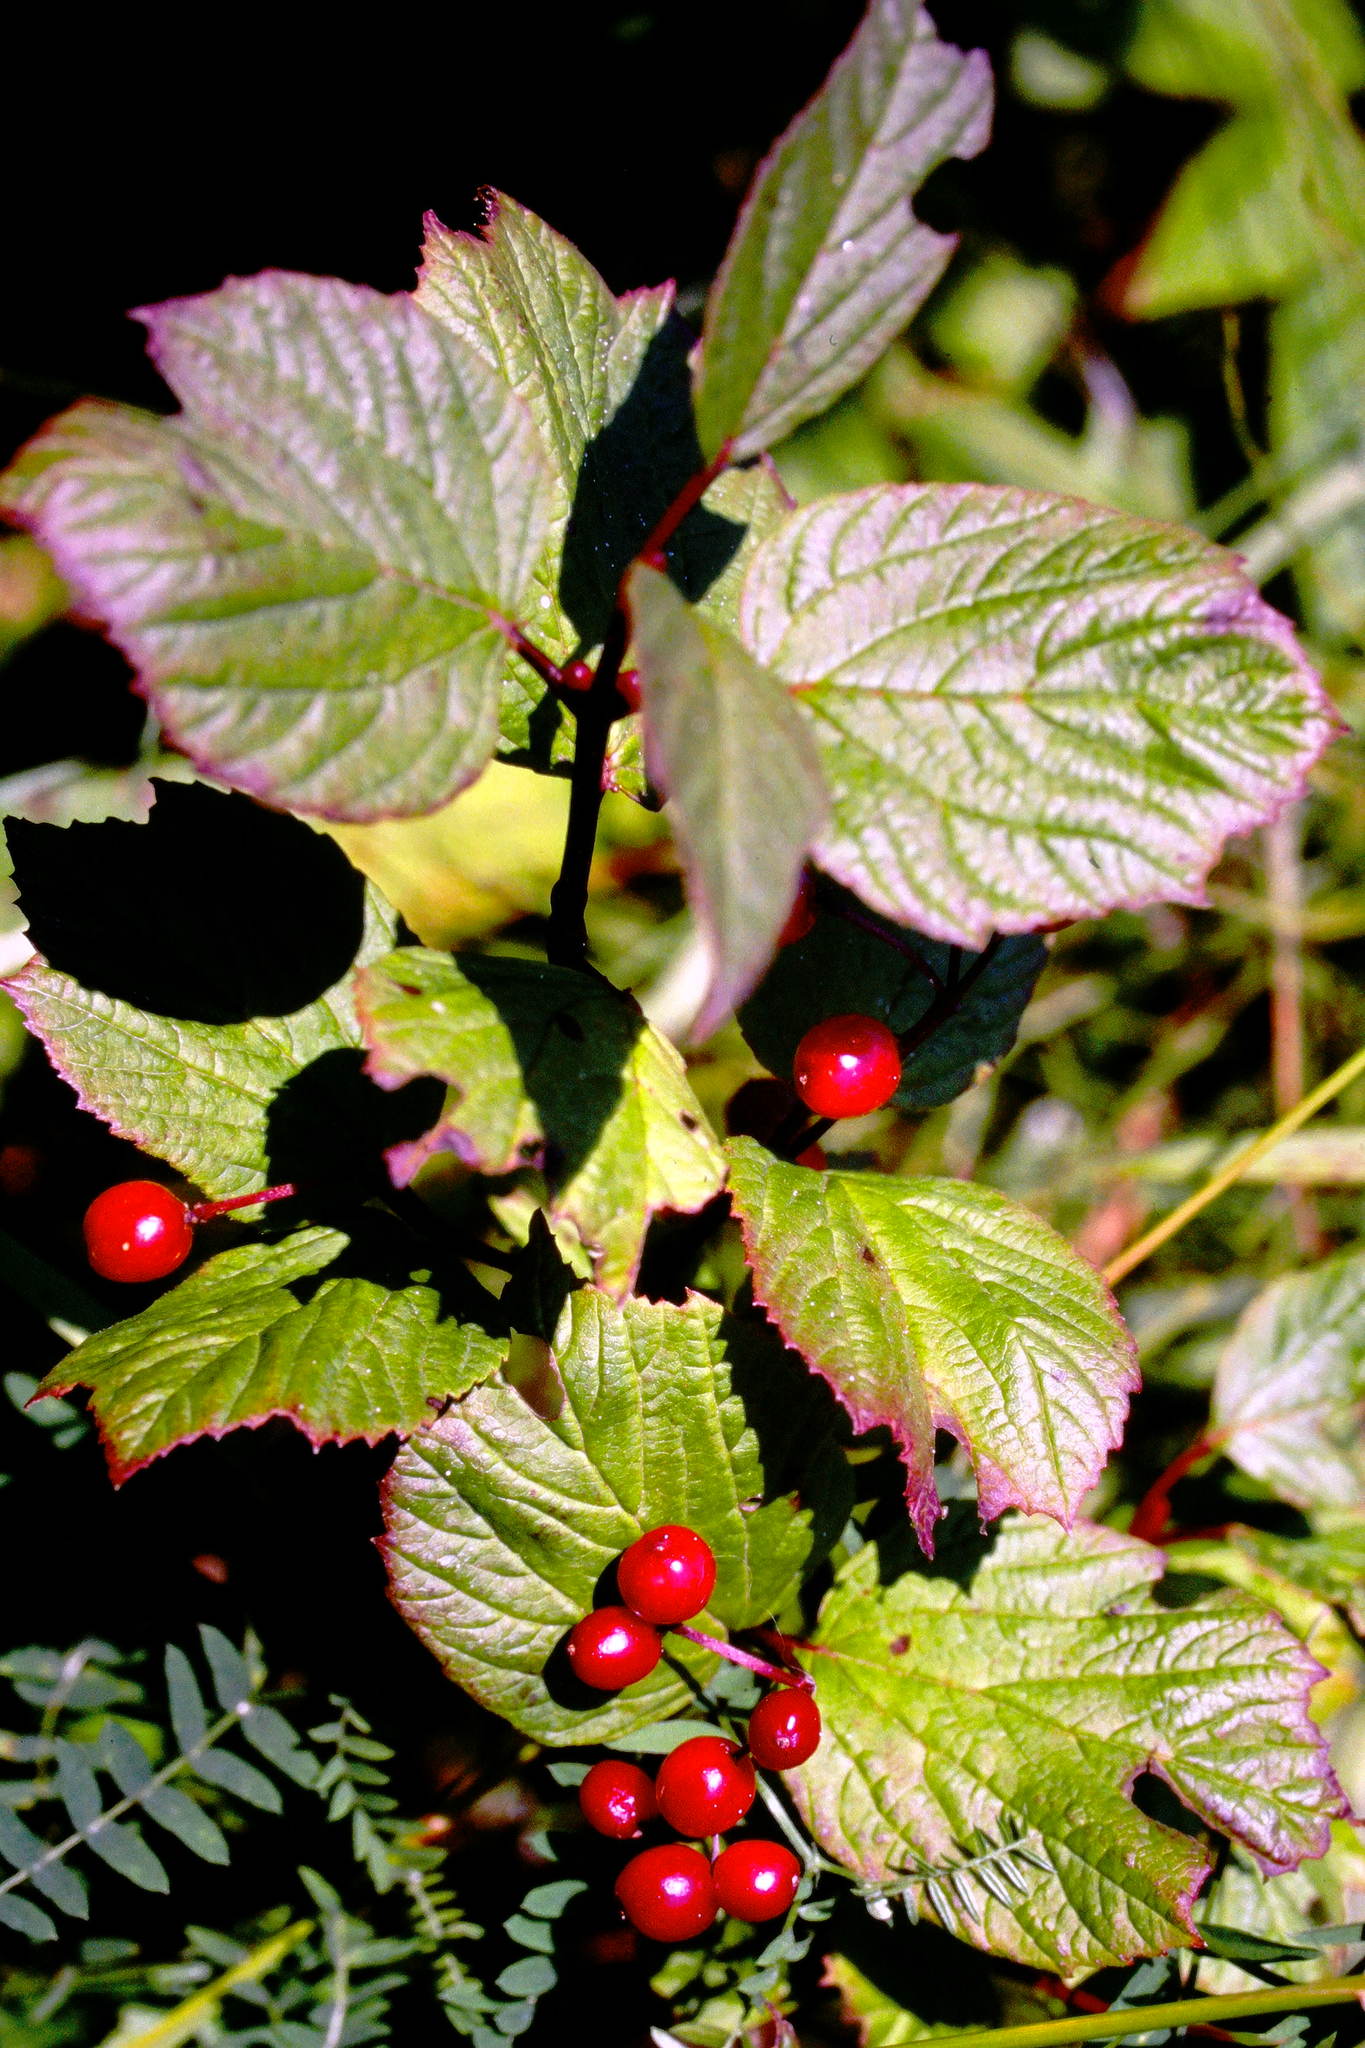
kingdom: Plantae
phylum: Tracheophyta
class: Magnoliopsida
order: Dipsacales
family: Viburnaceae
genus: Viburnum
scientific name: Viburnum edule
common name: Mooseberry
